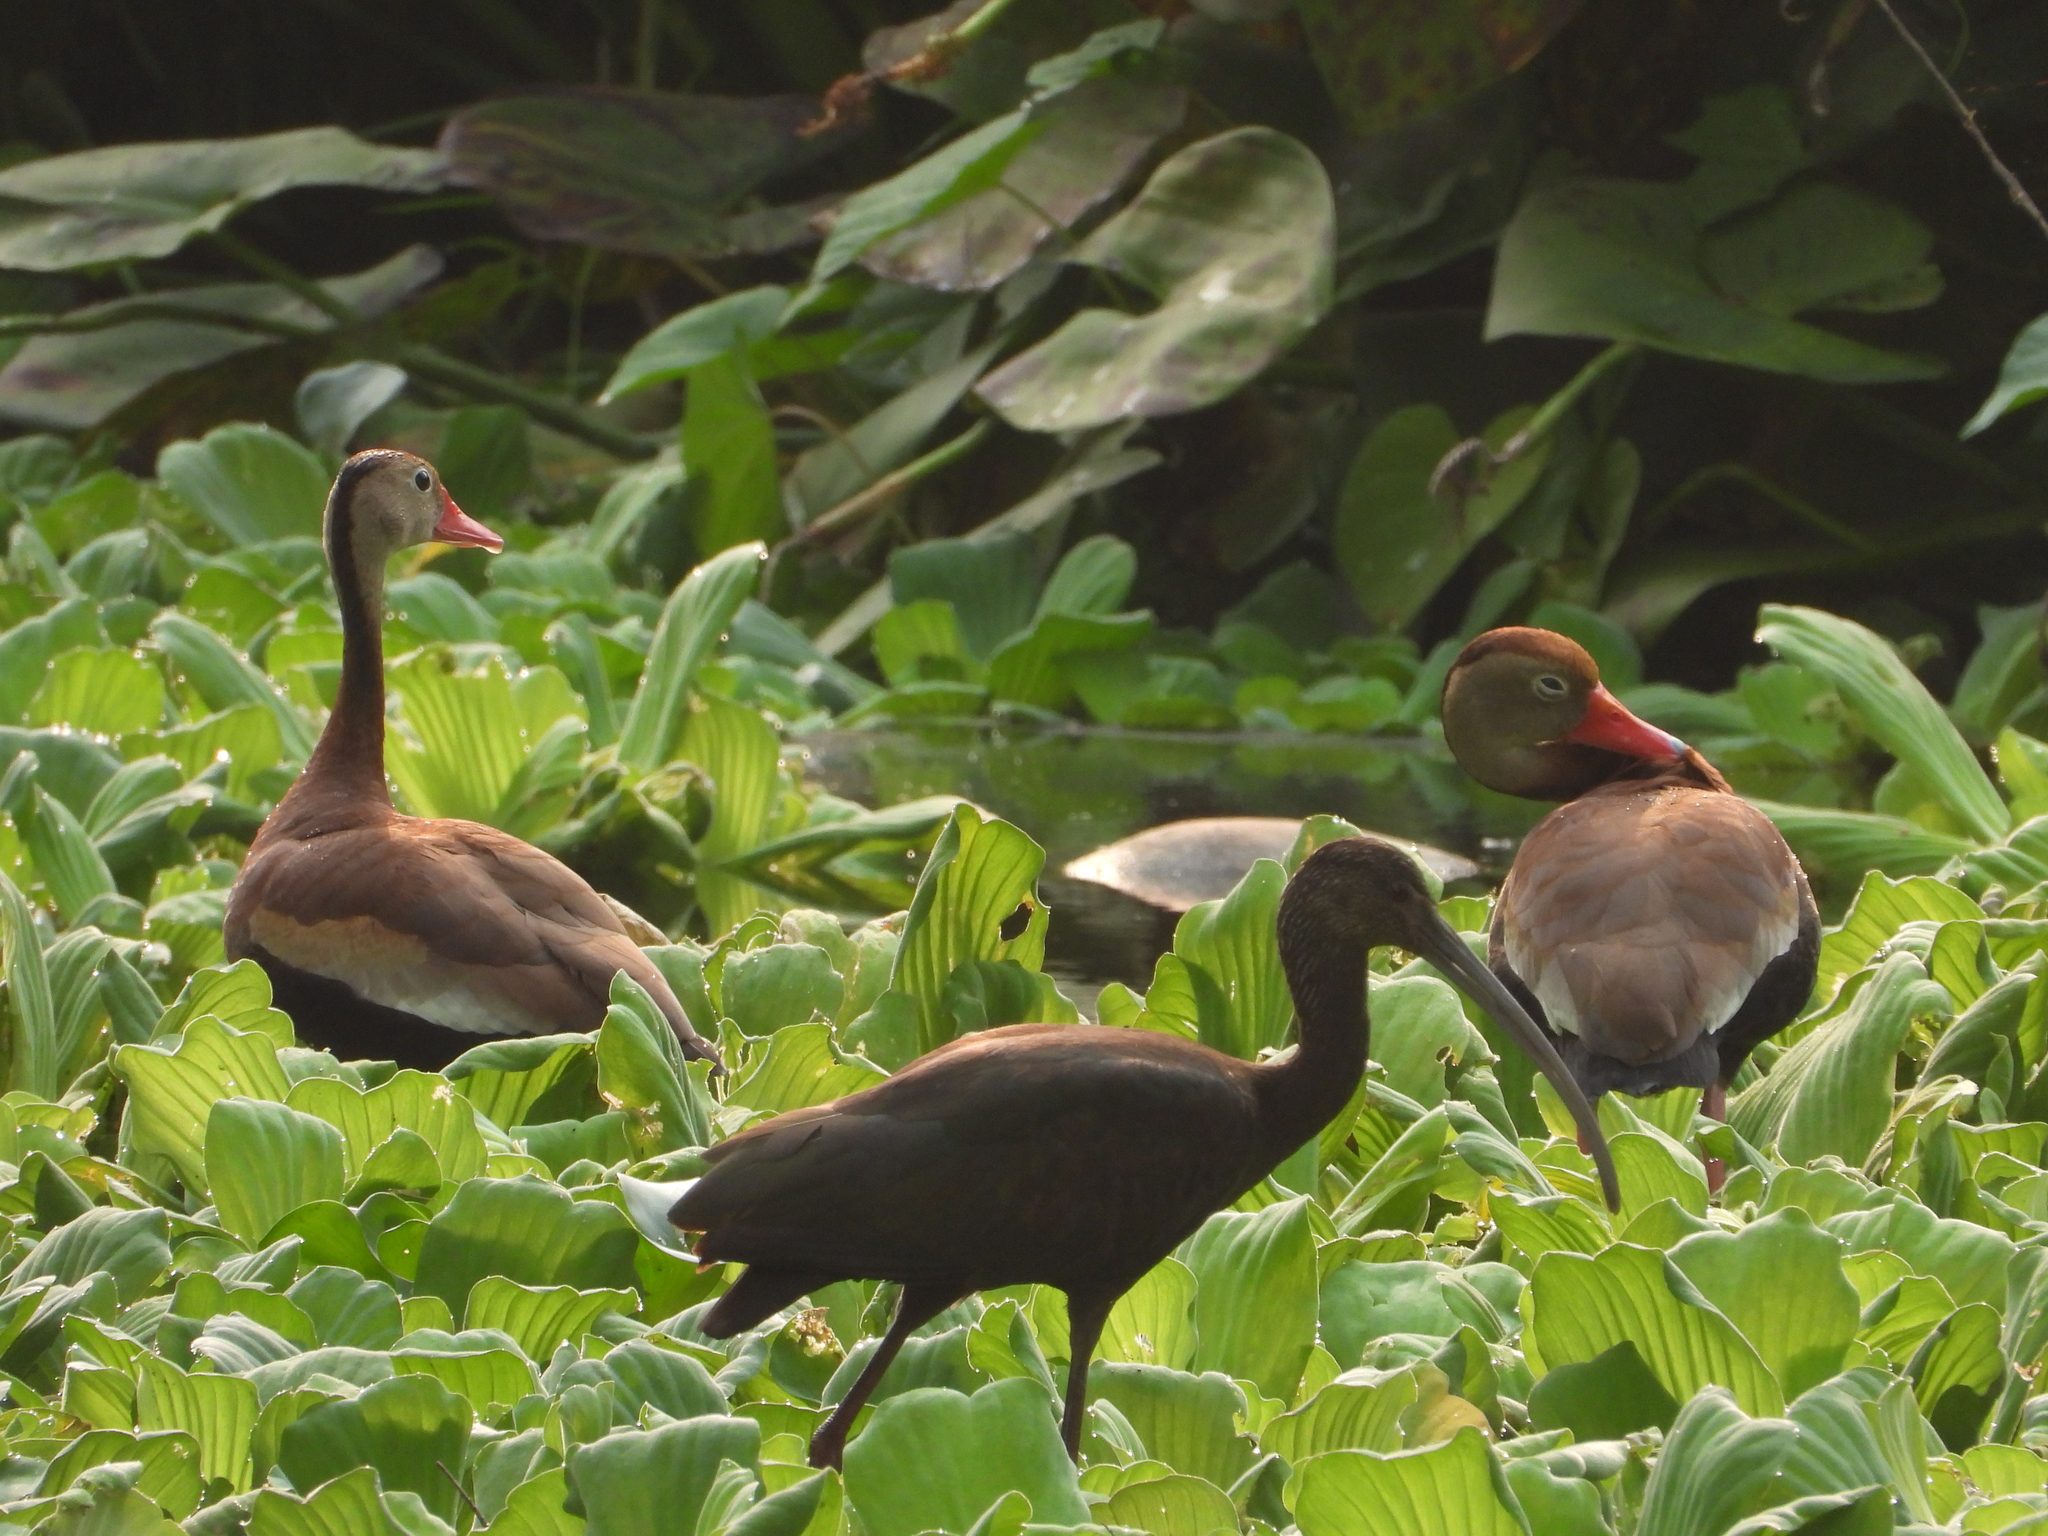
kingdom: Animalia
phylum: Chordata
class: Aves
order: Anseriformes
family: Anatidae
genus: Dendrocygna
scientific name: Dendrocygna autumnalis
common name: Black-bellied whistling duck
